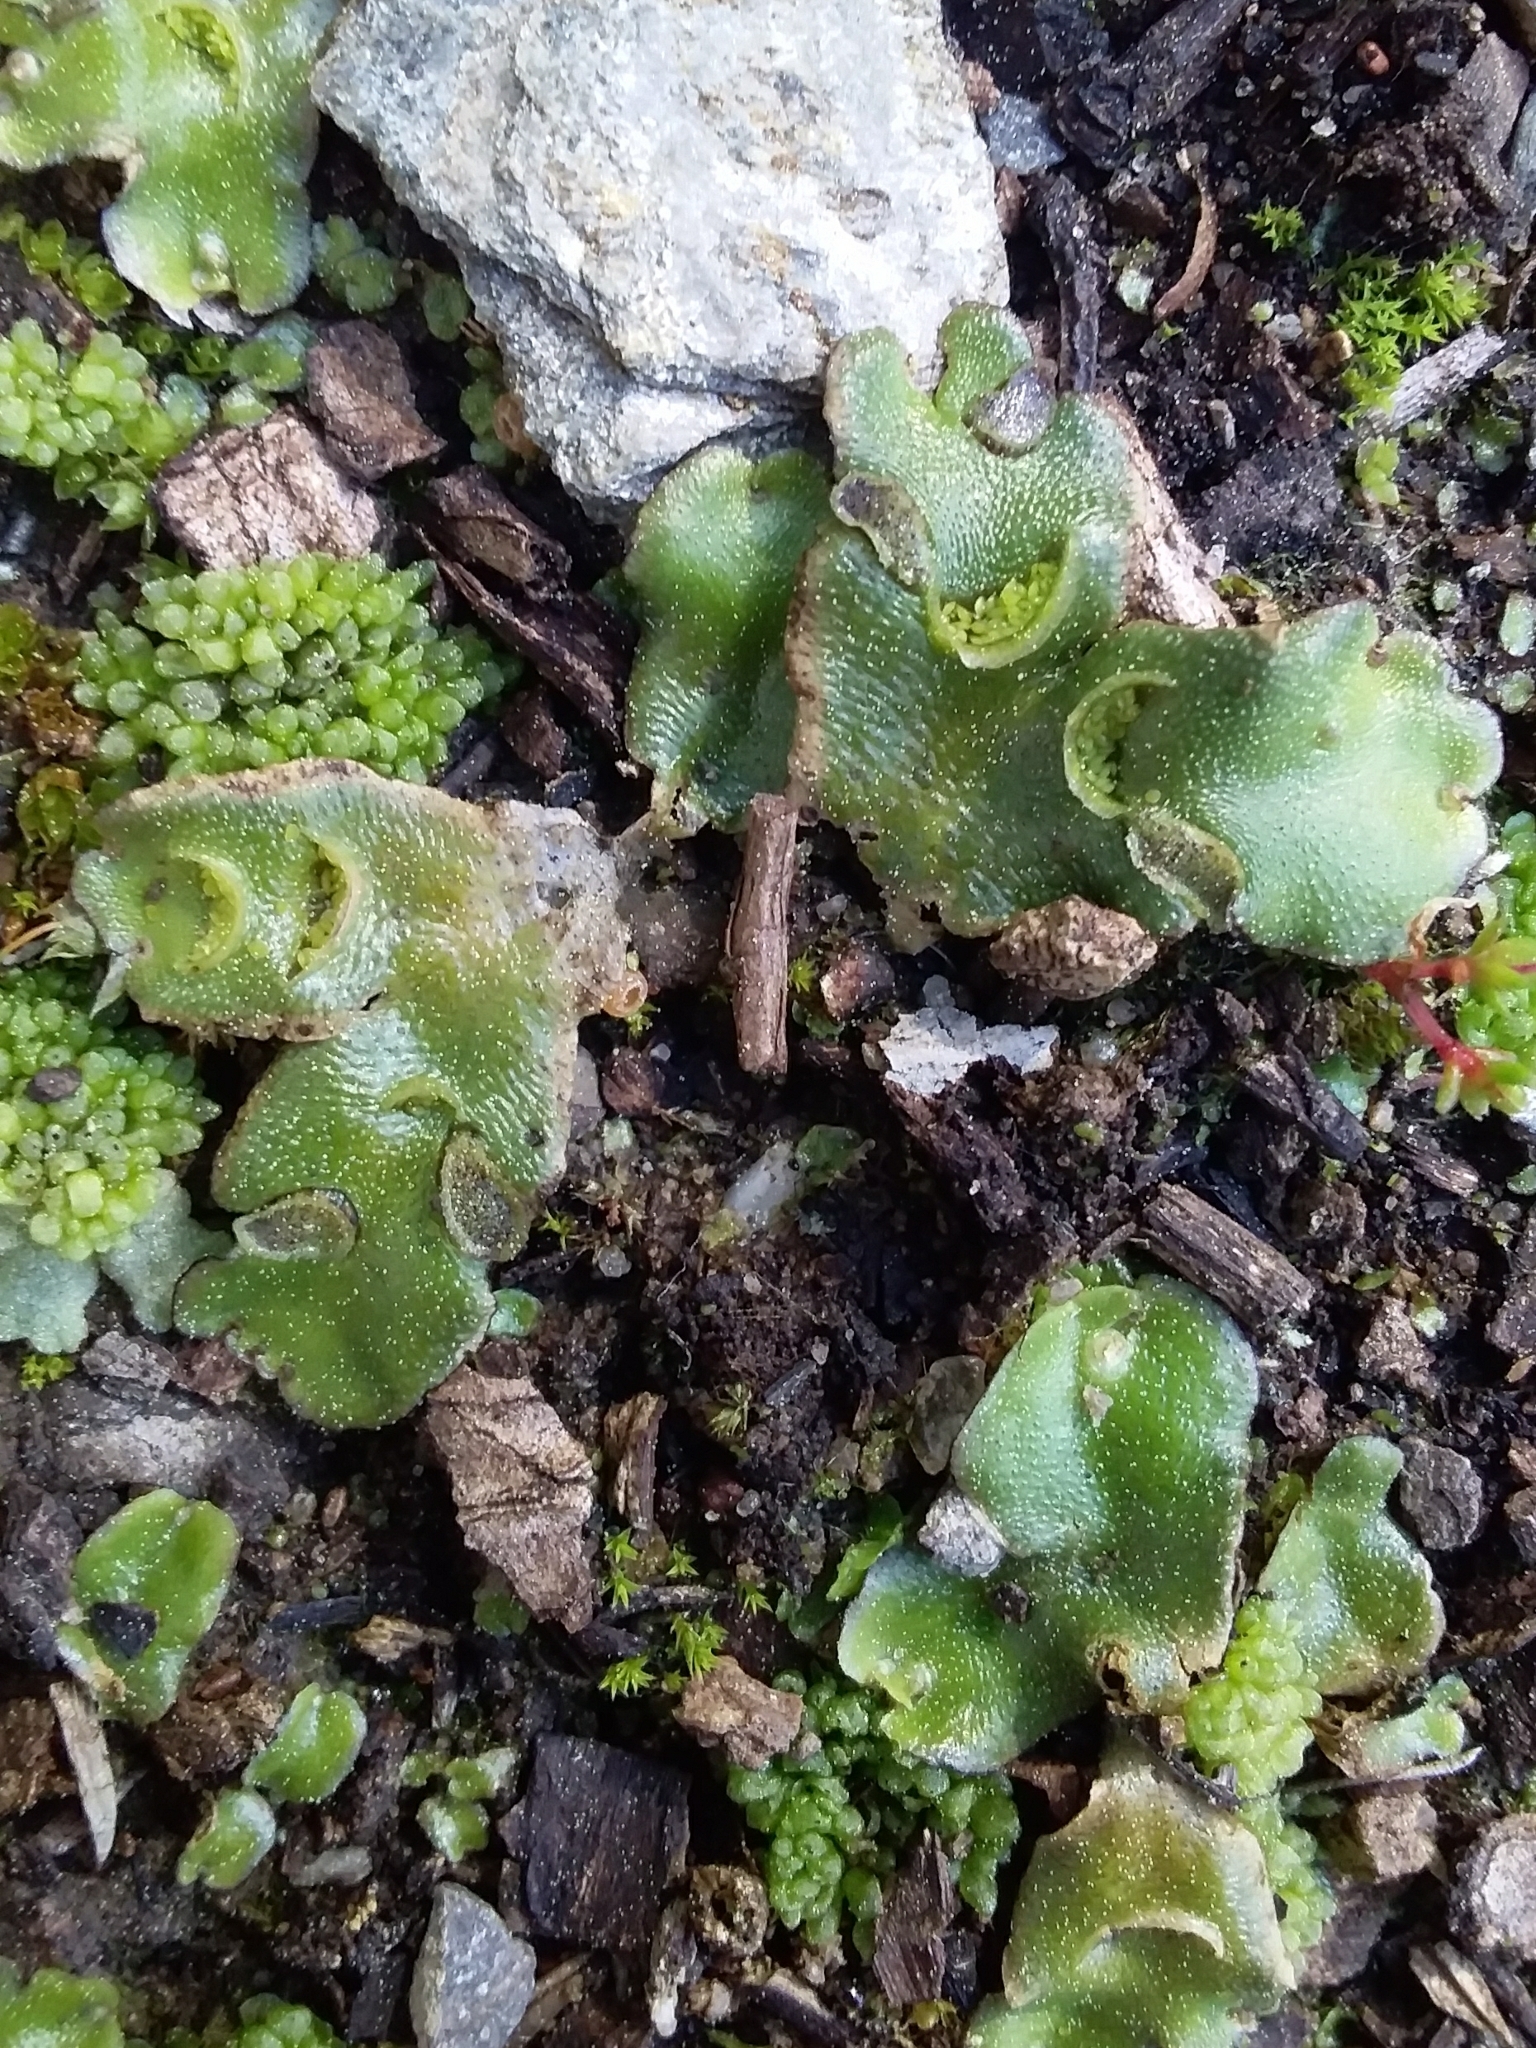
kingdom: Plantae
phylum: Marchantiophyta
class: Marchantiopsida
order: Lunulariales
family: Lunulariaceae
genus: Lunularia
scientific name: Lunularia cruciata
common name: Crescent-cup liverwort
